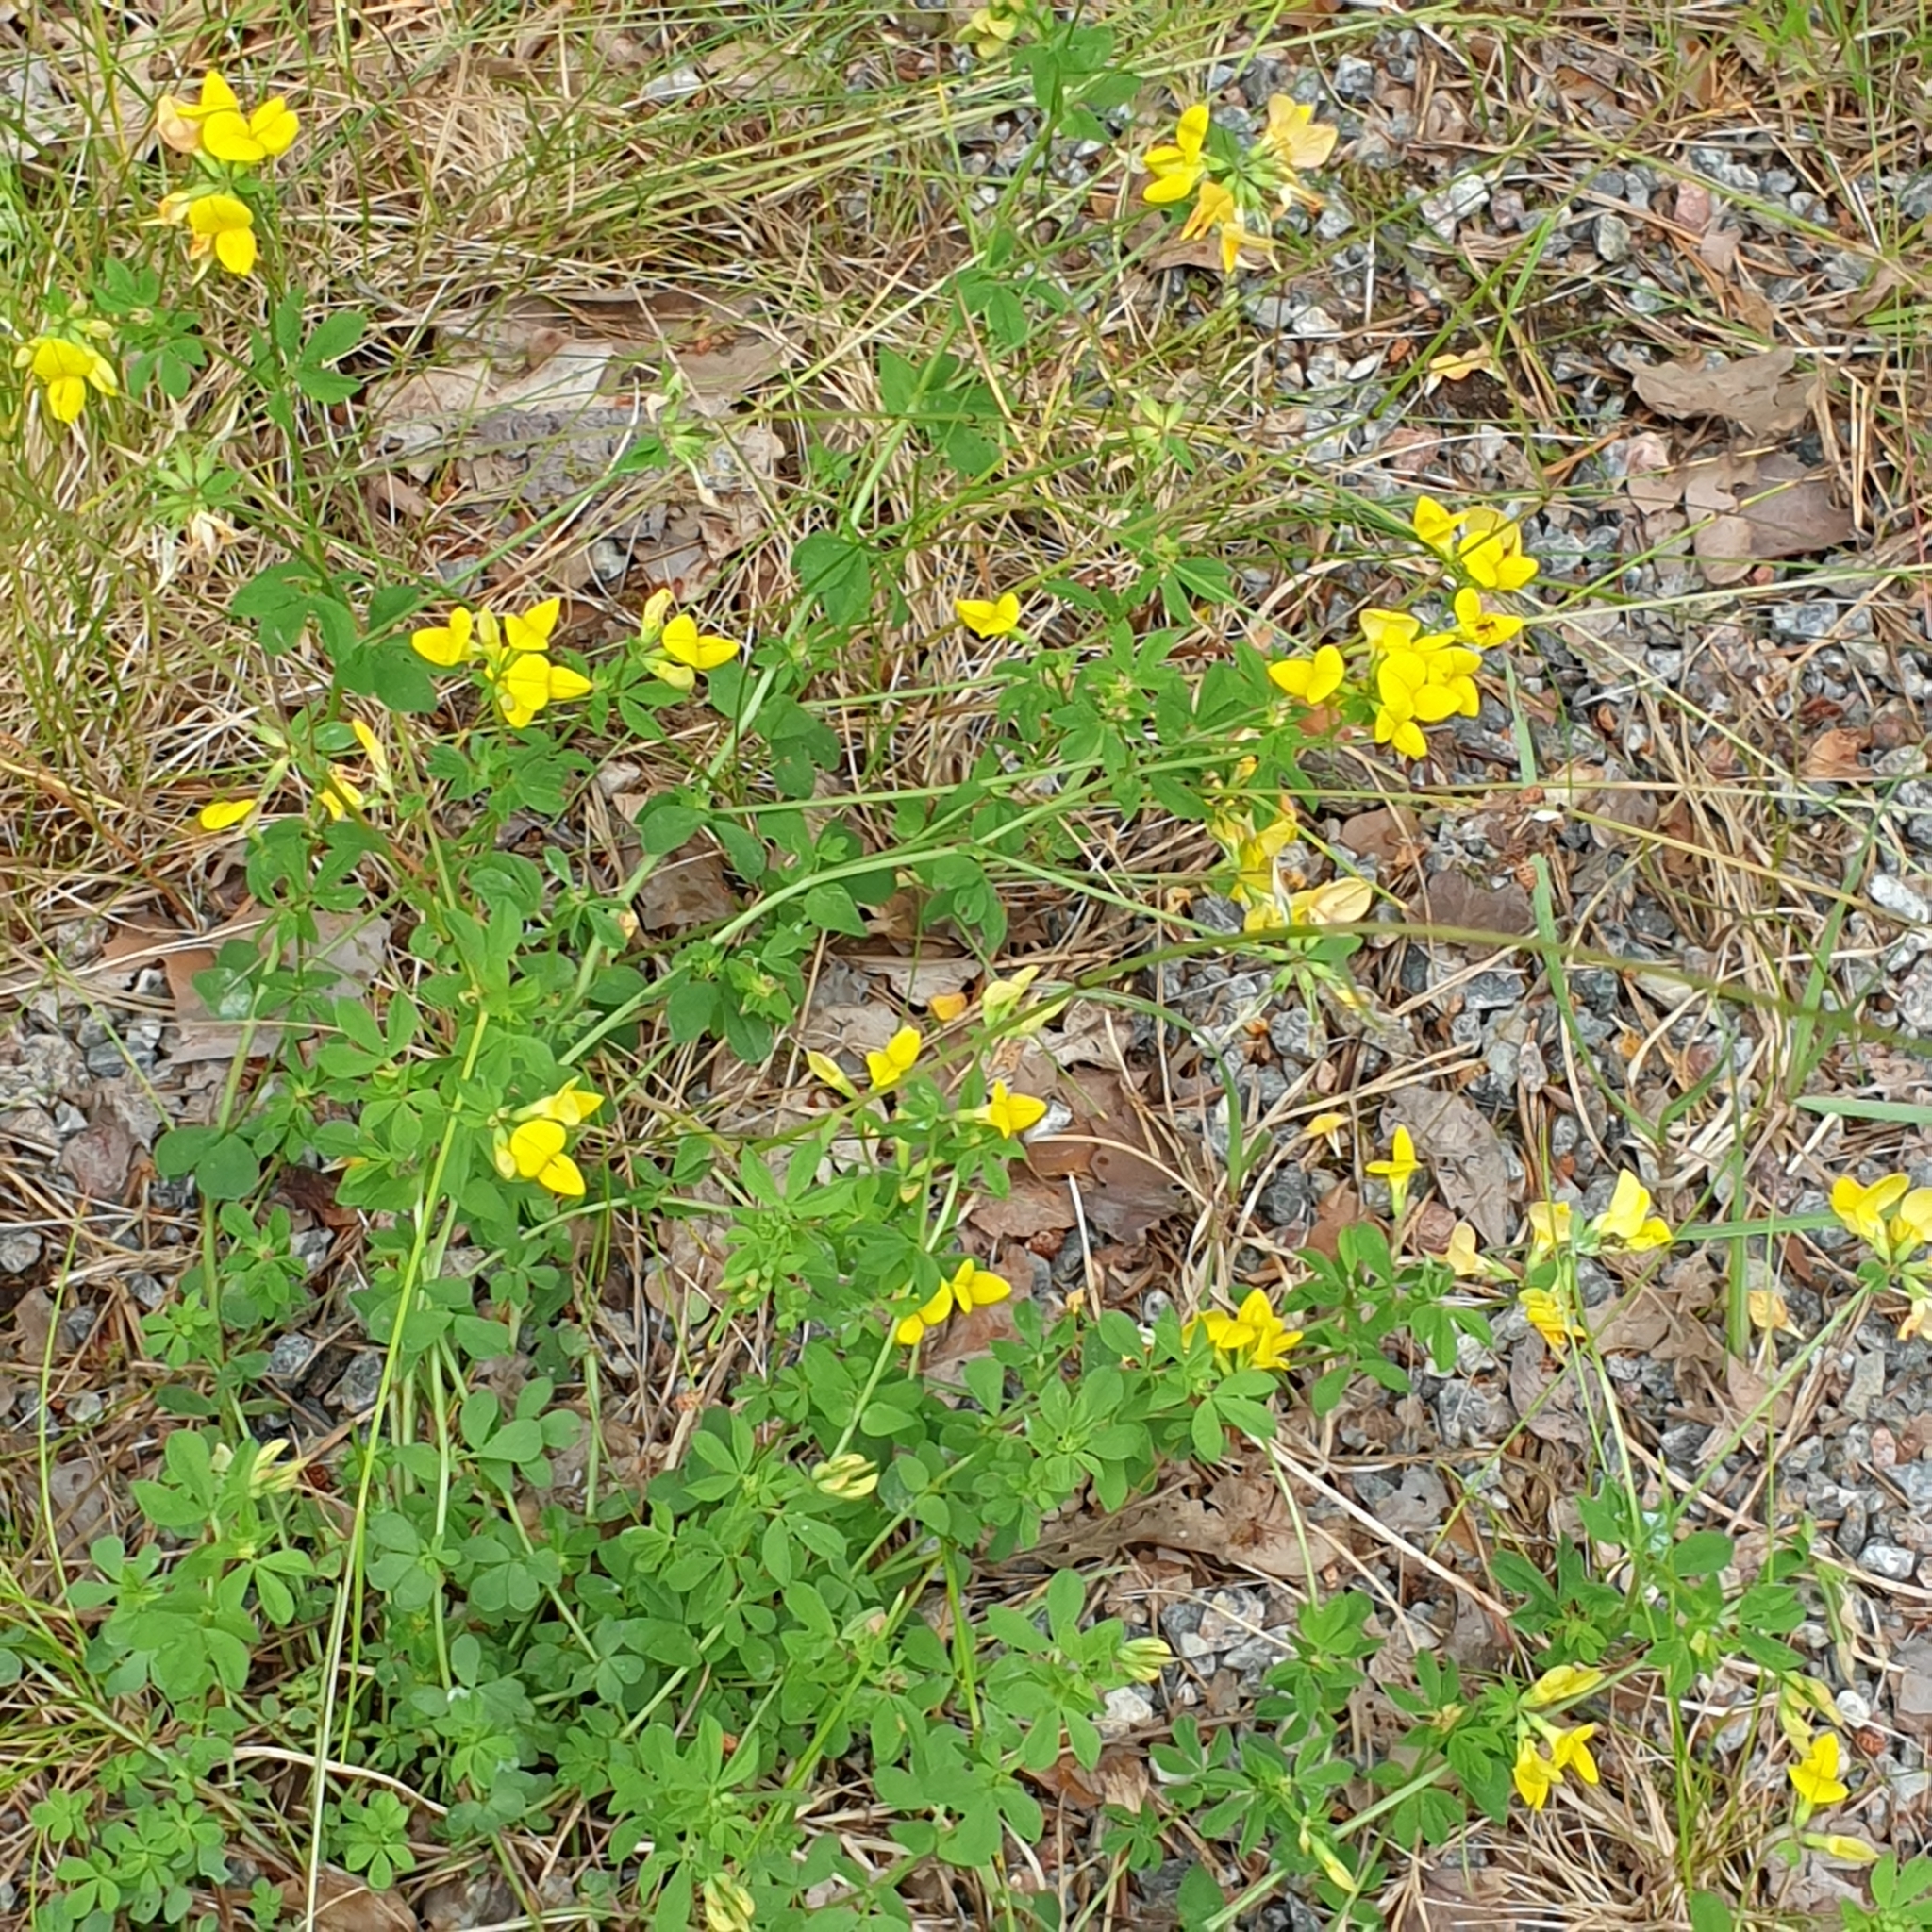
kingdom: Plantae
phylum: Tracheophyta
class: Magnoliopsida
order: Fabales
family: Fabaceae
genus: Lotus
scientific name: Lotus corniculatus
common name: Common bird's-foot-trefoil
